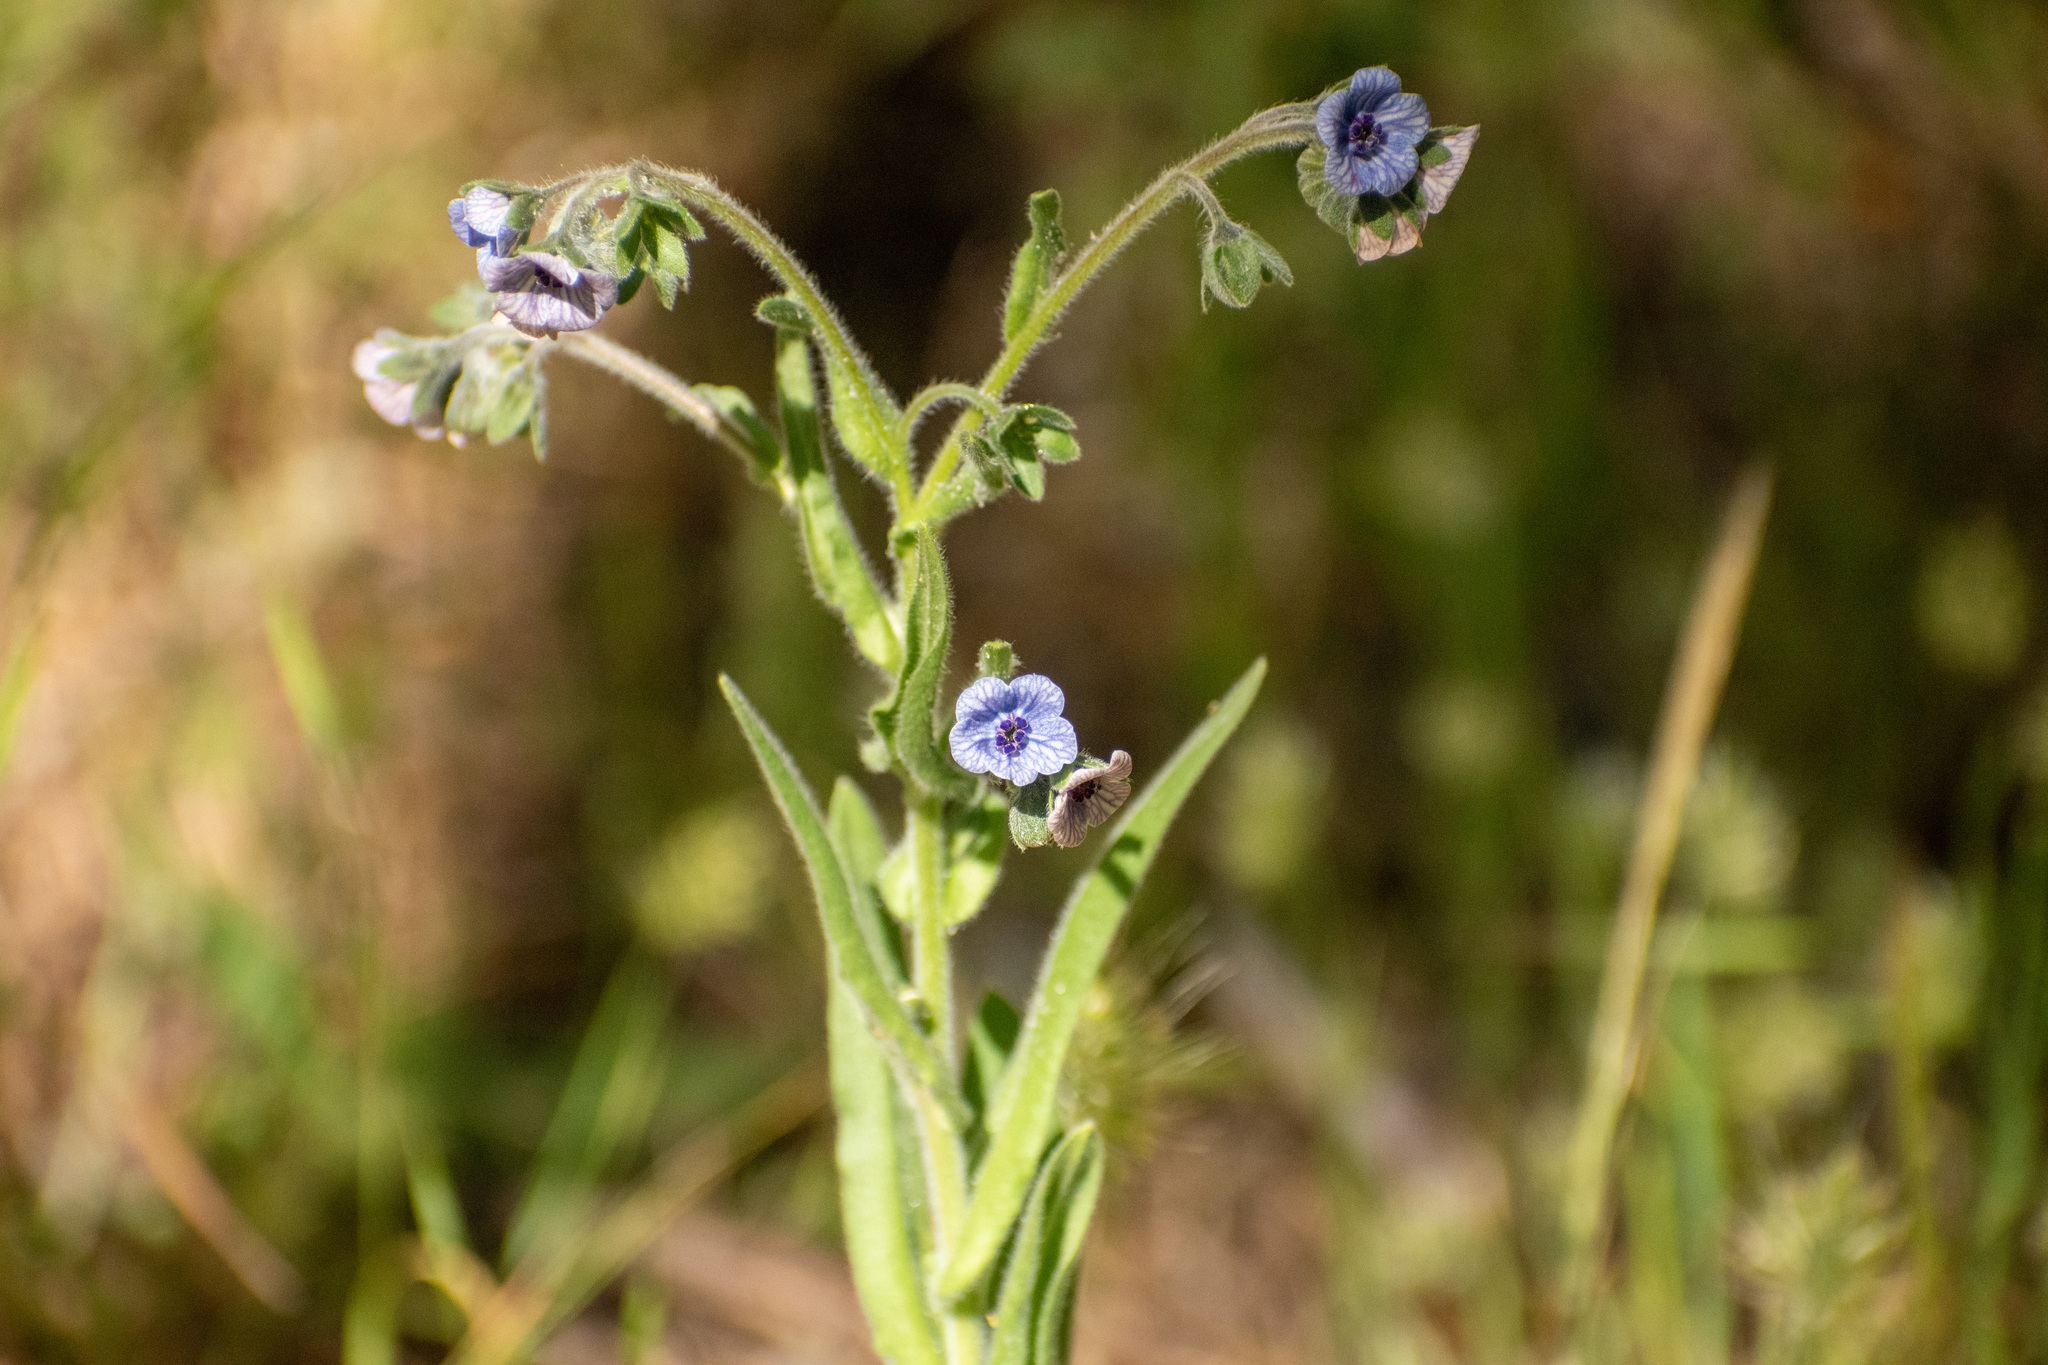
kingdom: Plantae
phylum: Tracheophyta
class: Magnoliopsida
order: Boraginales
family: Boraginaceae
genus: Cynoglossum
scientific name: Cynoglossum creticum
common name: Blue hound's tongue
